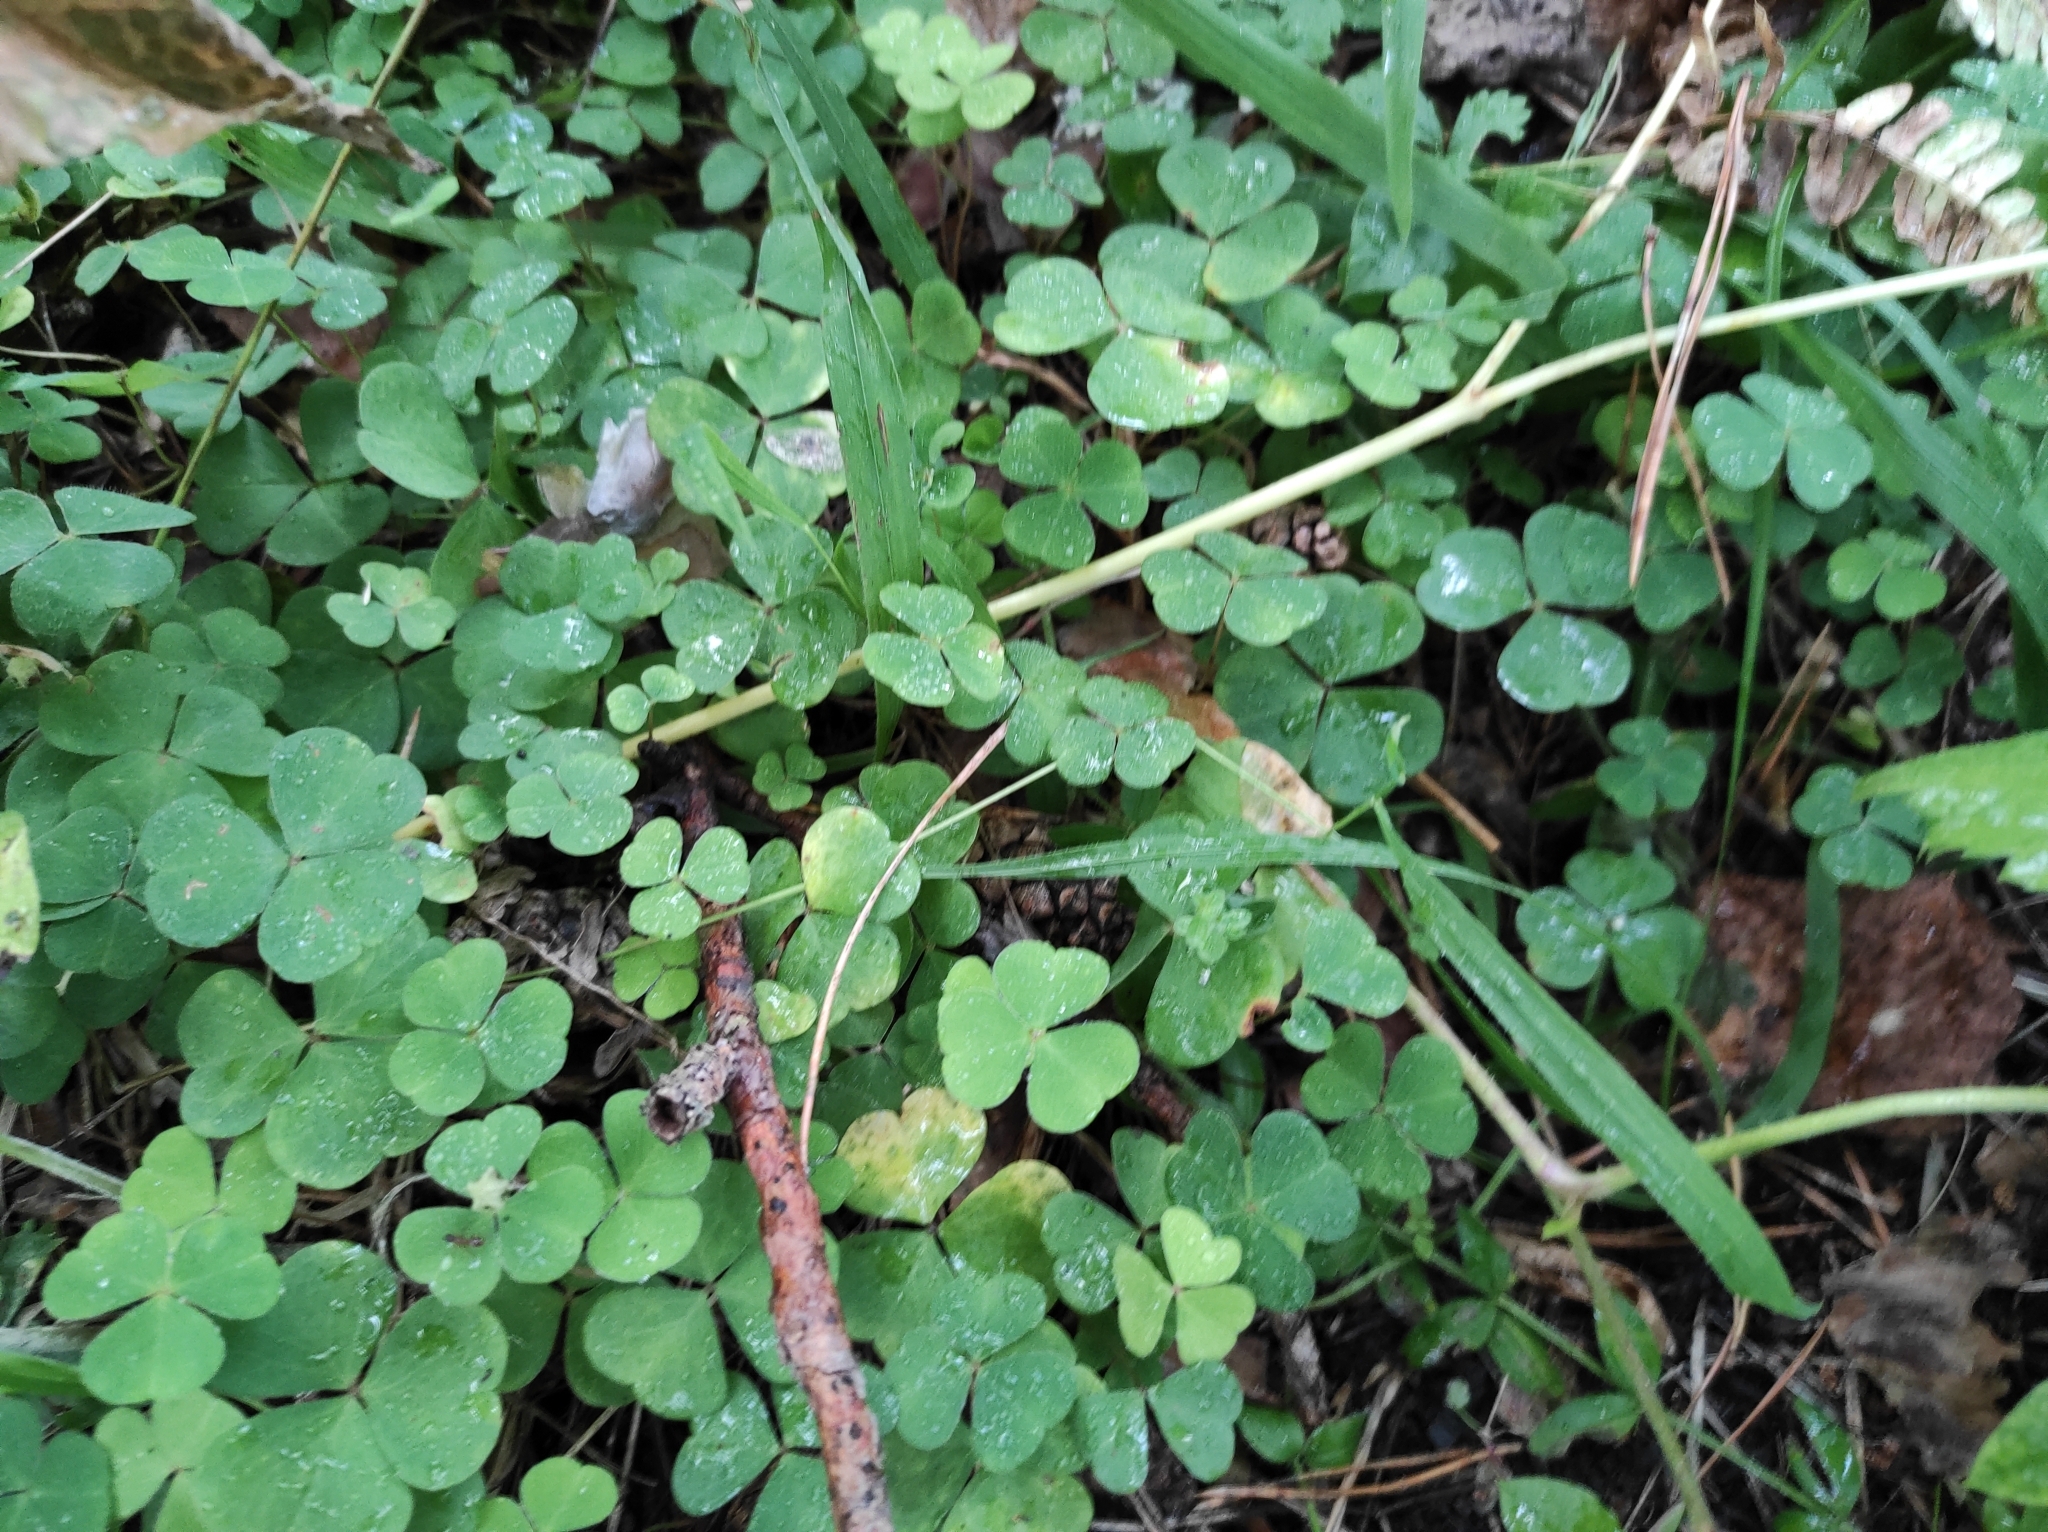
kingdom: Plantae
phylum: Tracheophyta
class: Magnoliopsida
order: Oxalidales
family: Oxalidaceae
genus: Oxalis
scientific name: Oxalis acetosella
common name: Wood-sorrel
